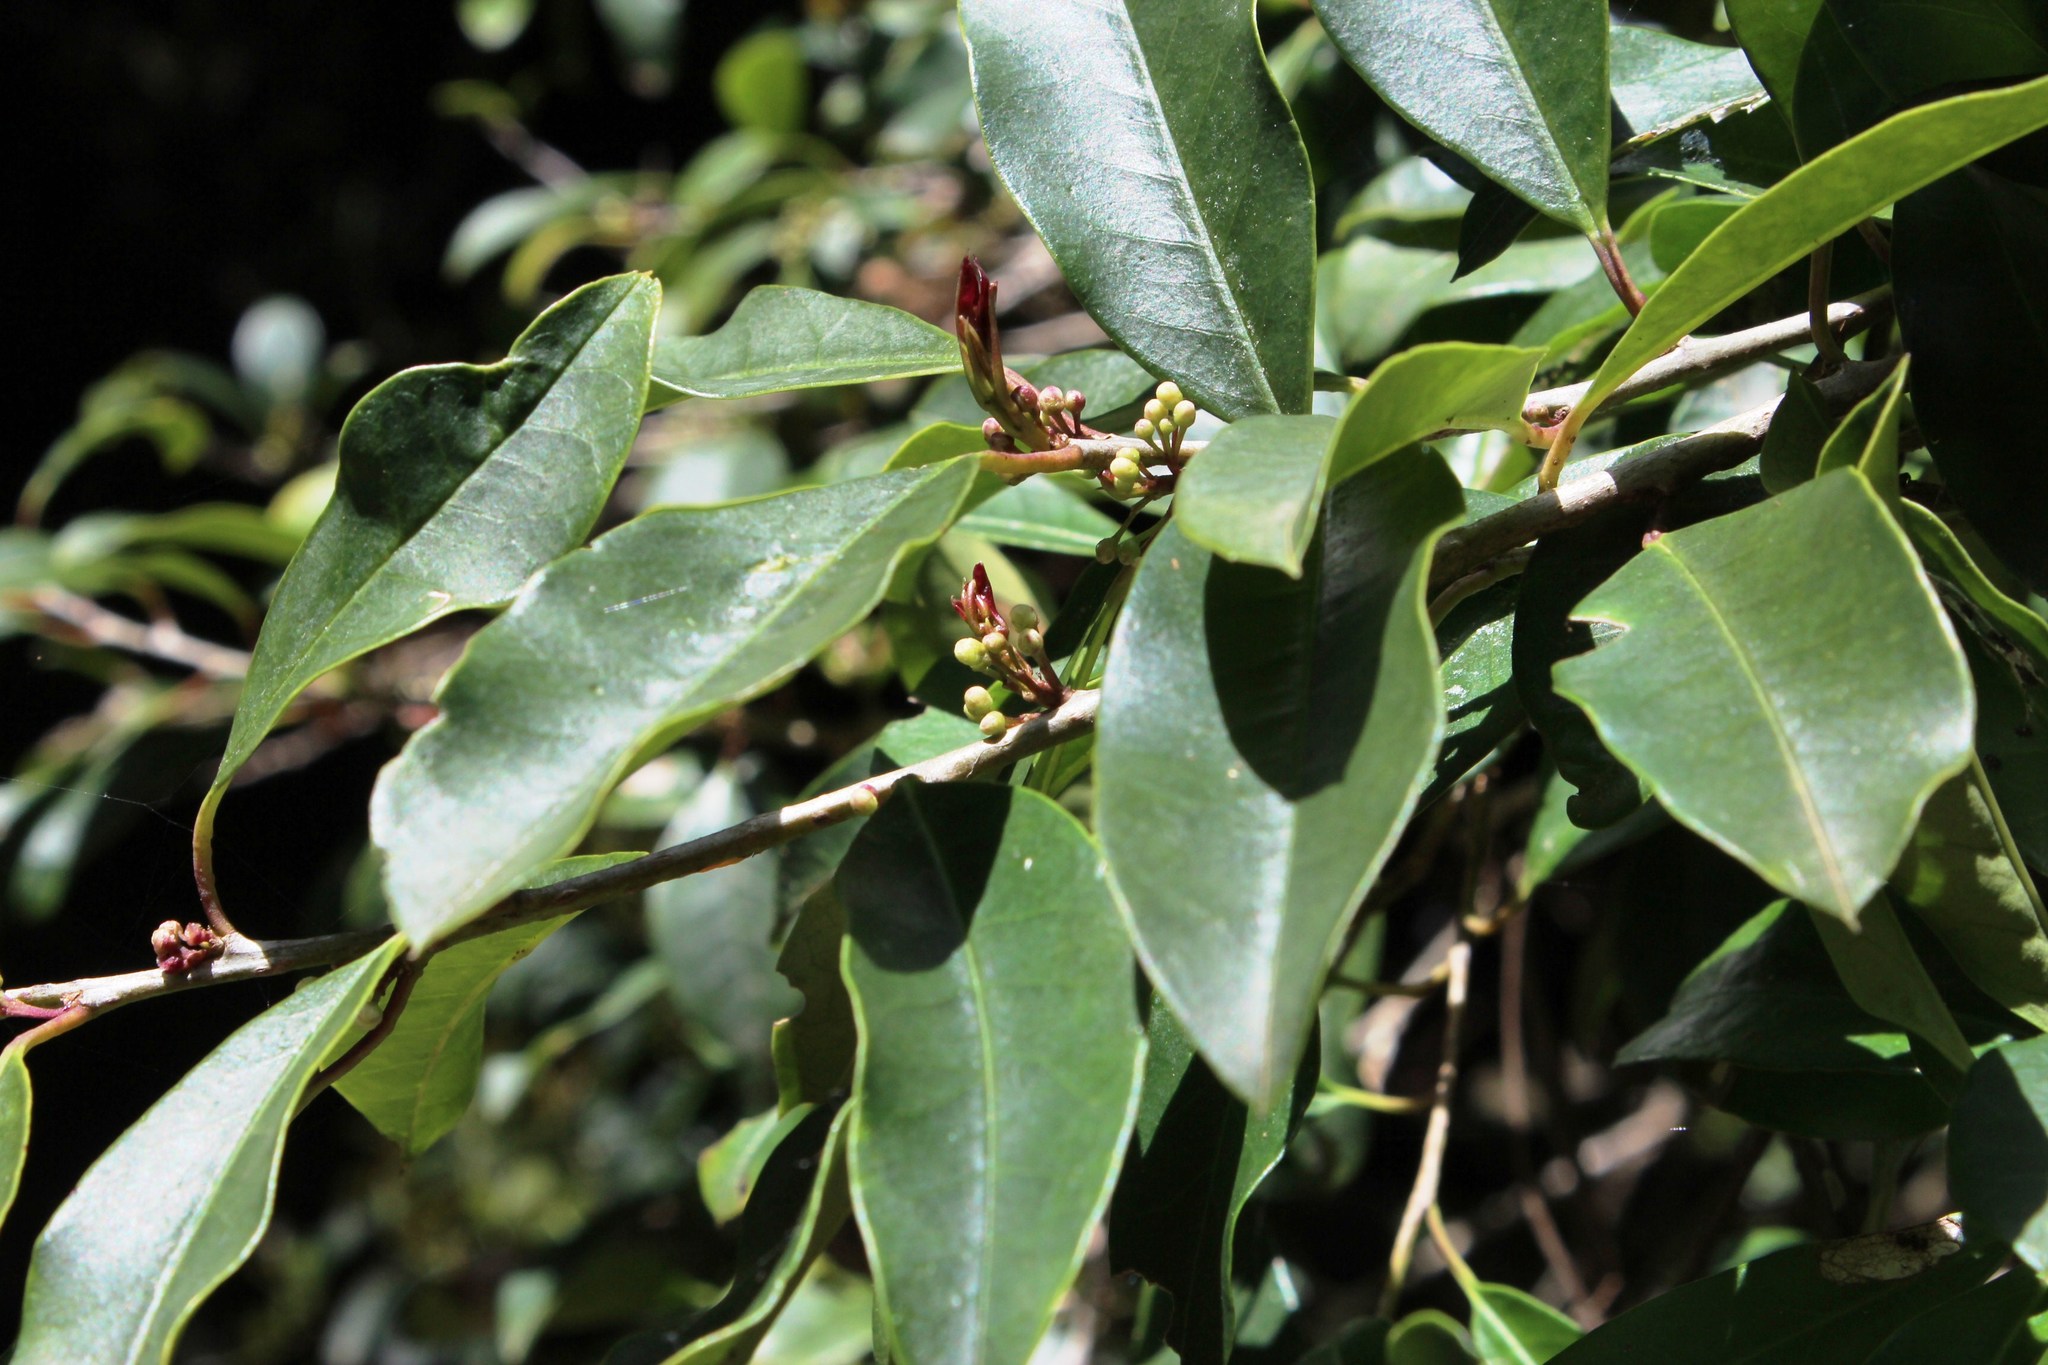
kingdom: Plantae
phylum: Tracheophyta
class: Magnoliopsida
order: Aquifoliales
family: Aquifoliaceae
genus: Ilex
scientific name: Ilex mitis
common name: African holly
